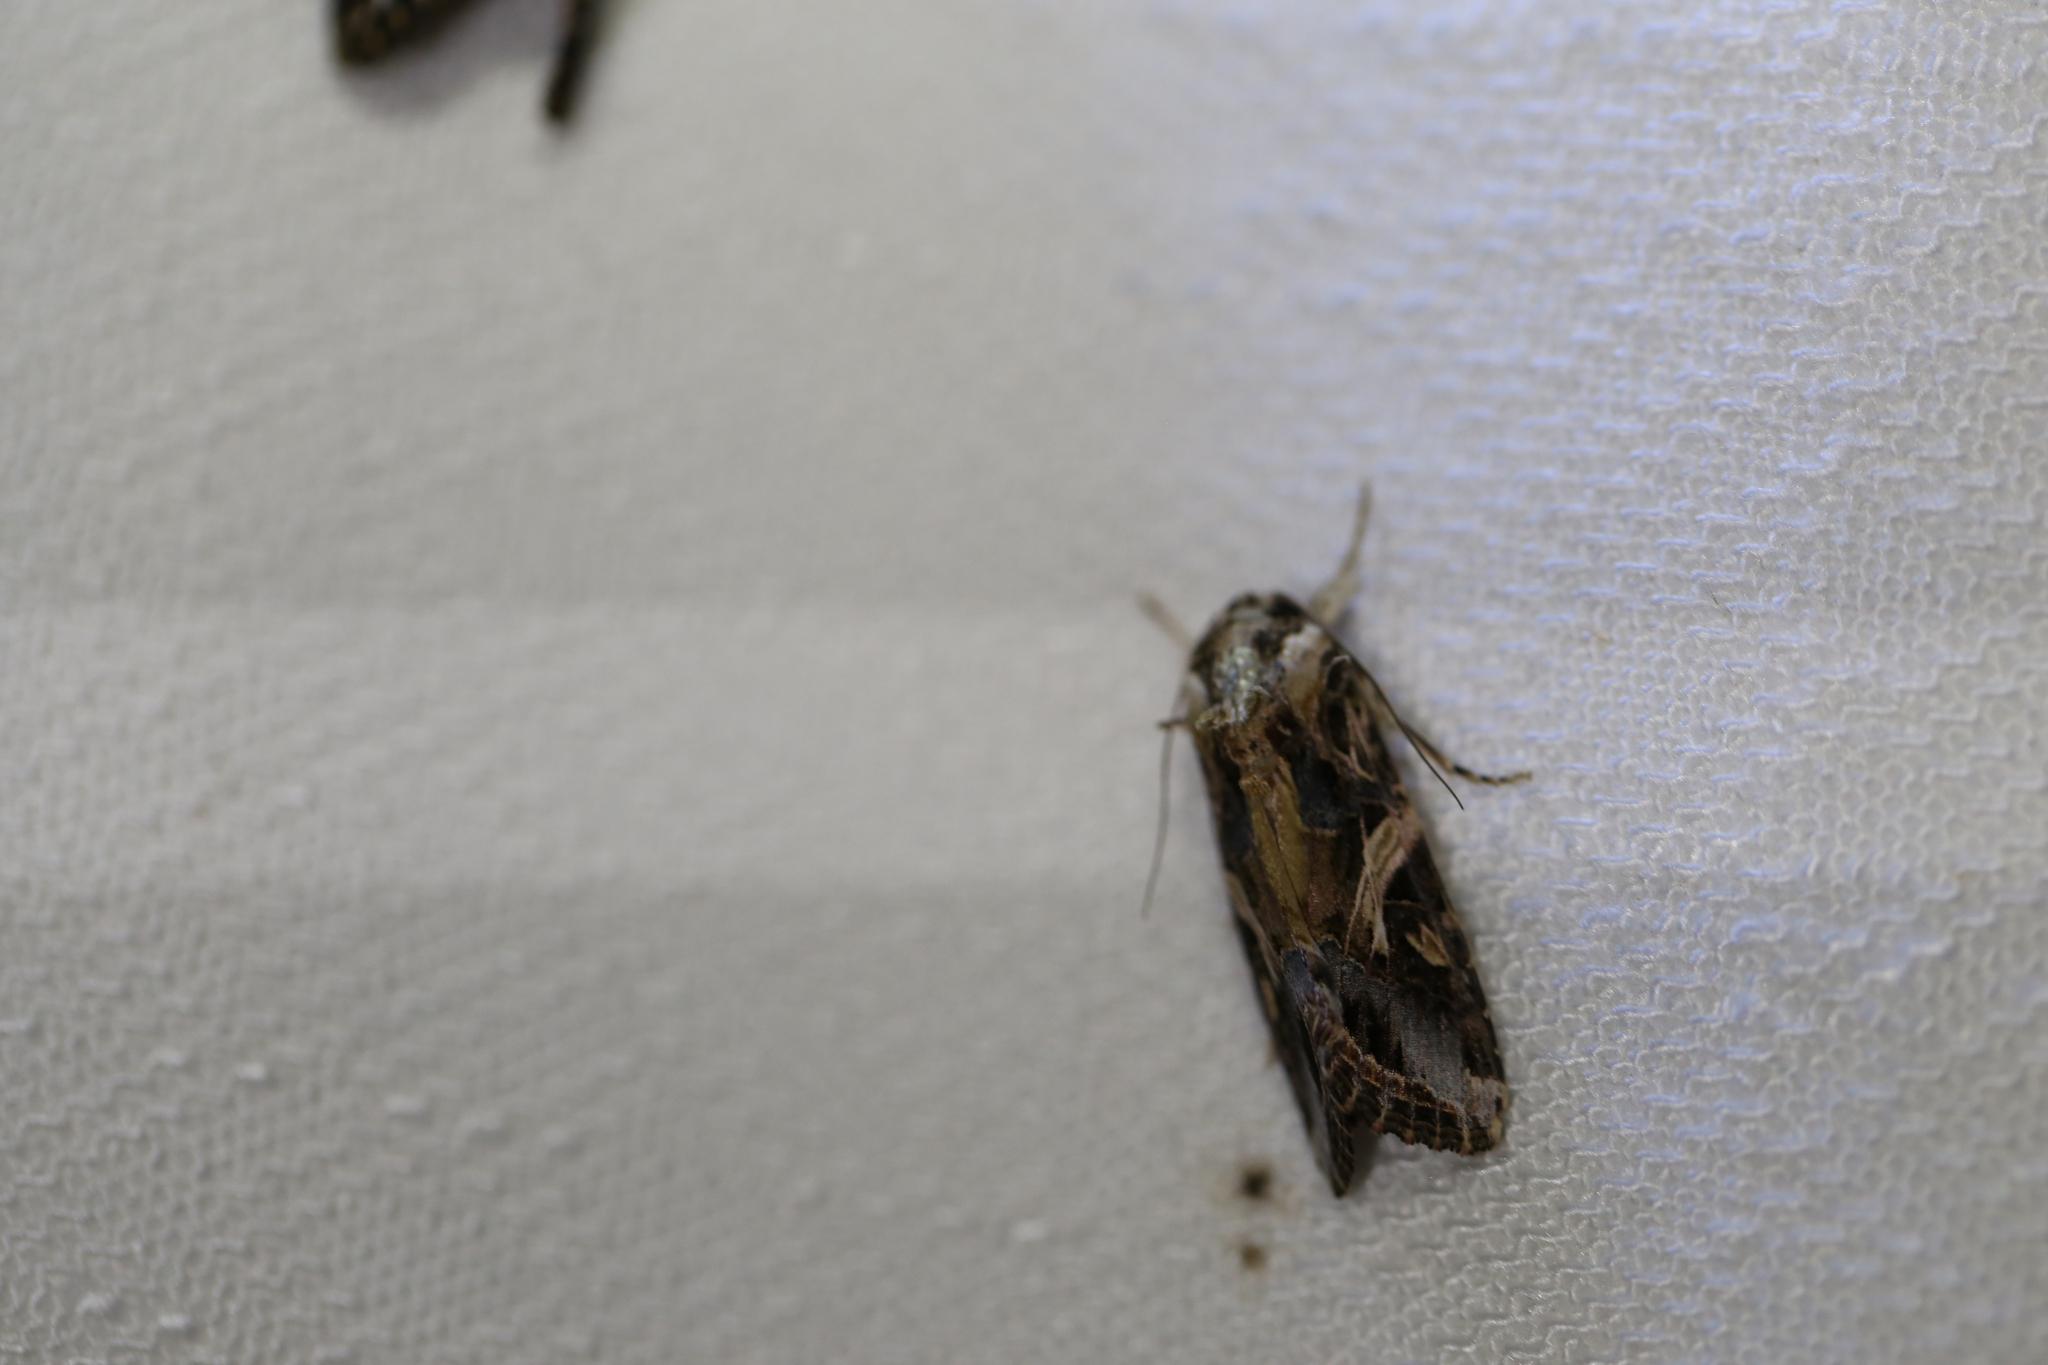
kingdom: Animalia
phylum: Arthropoda
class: Insecta
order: Lepidoptera
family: Noctuidae
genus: Spodoptera
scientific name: Spodoptera litura
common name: Asian cotton leafworm
